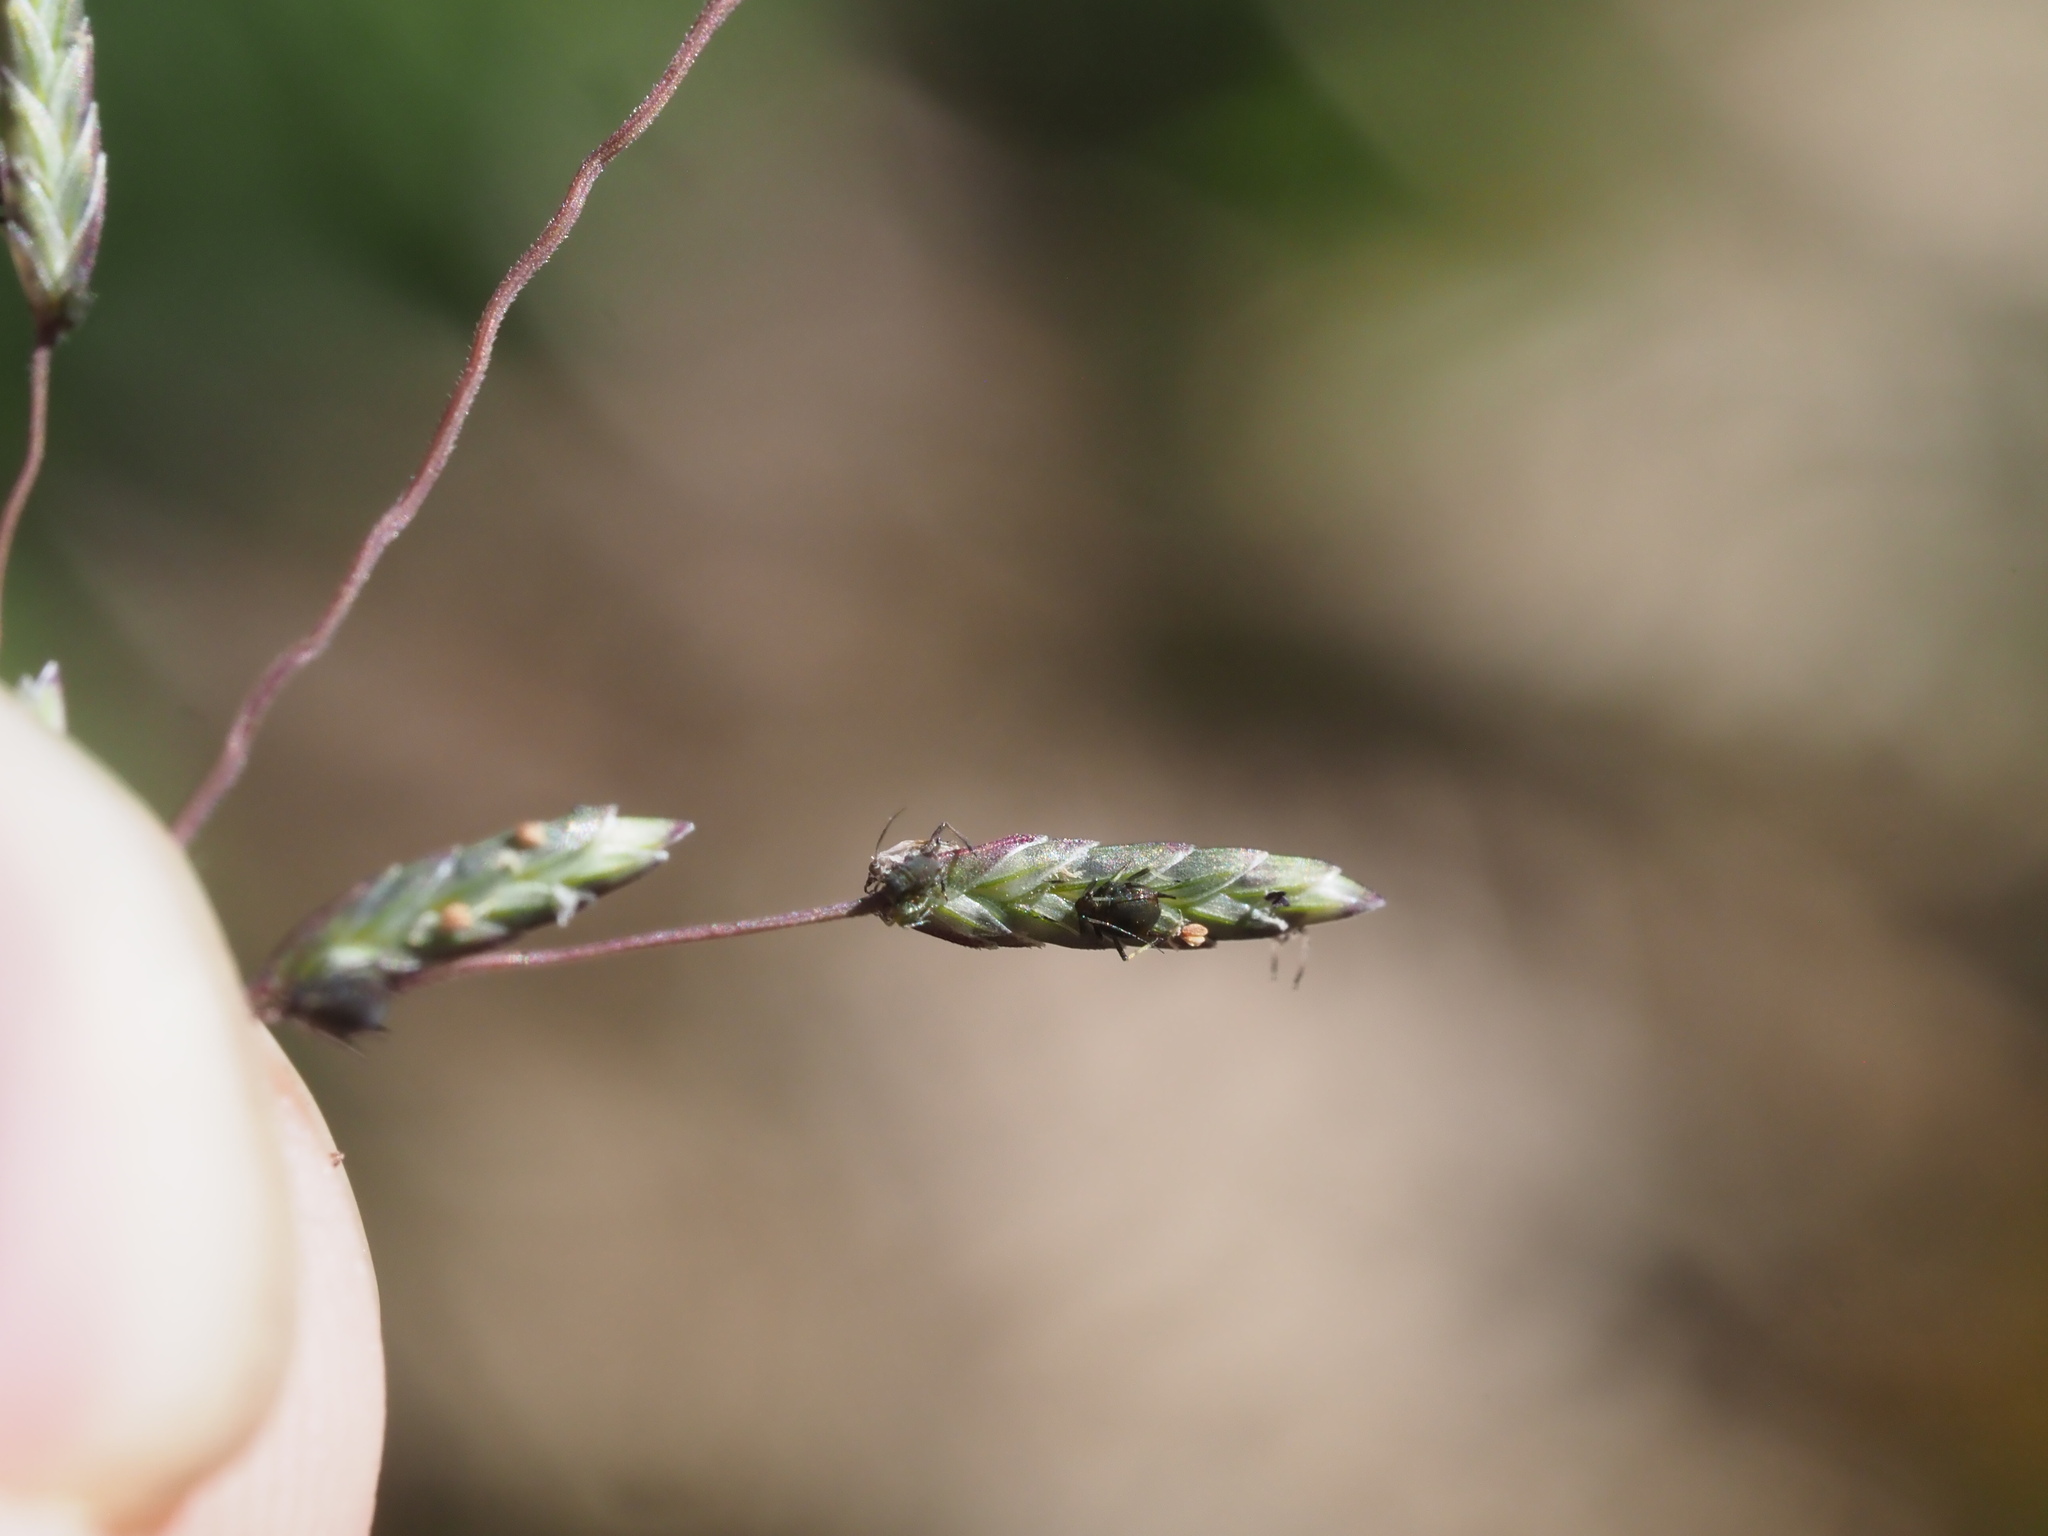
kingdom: Plantae
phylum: Tracheophyta
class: Liliopsida
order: Poales
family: Poaceae
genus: Eragrostis
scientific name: Eragrostis brownii
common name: Lovegrass
